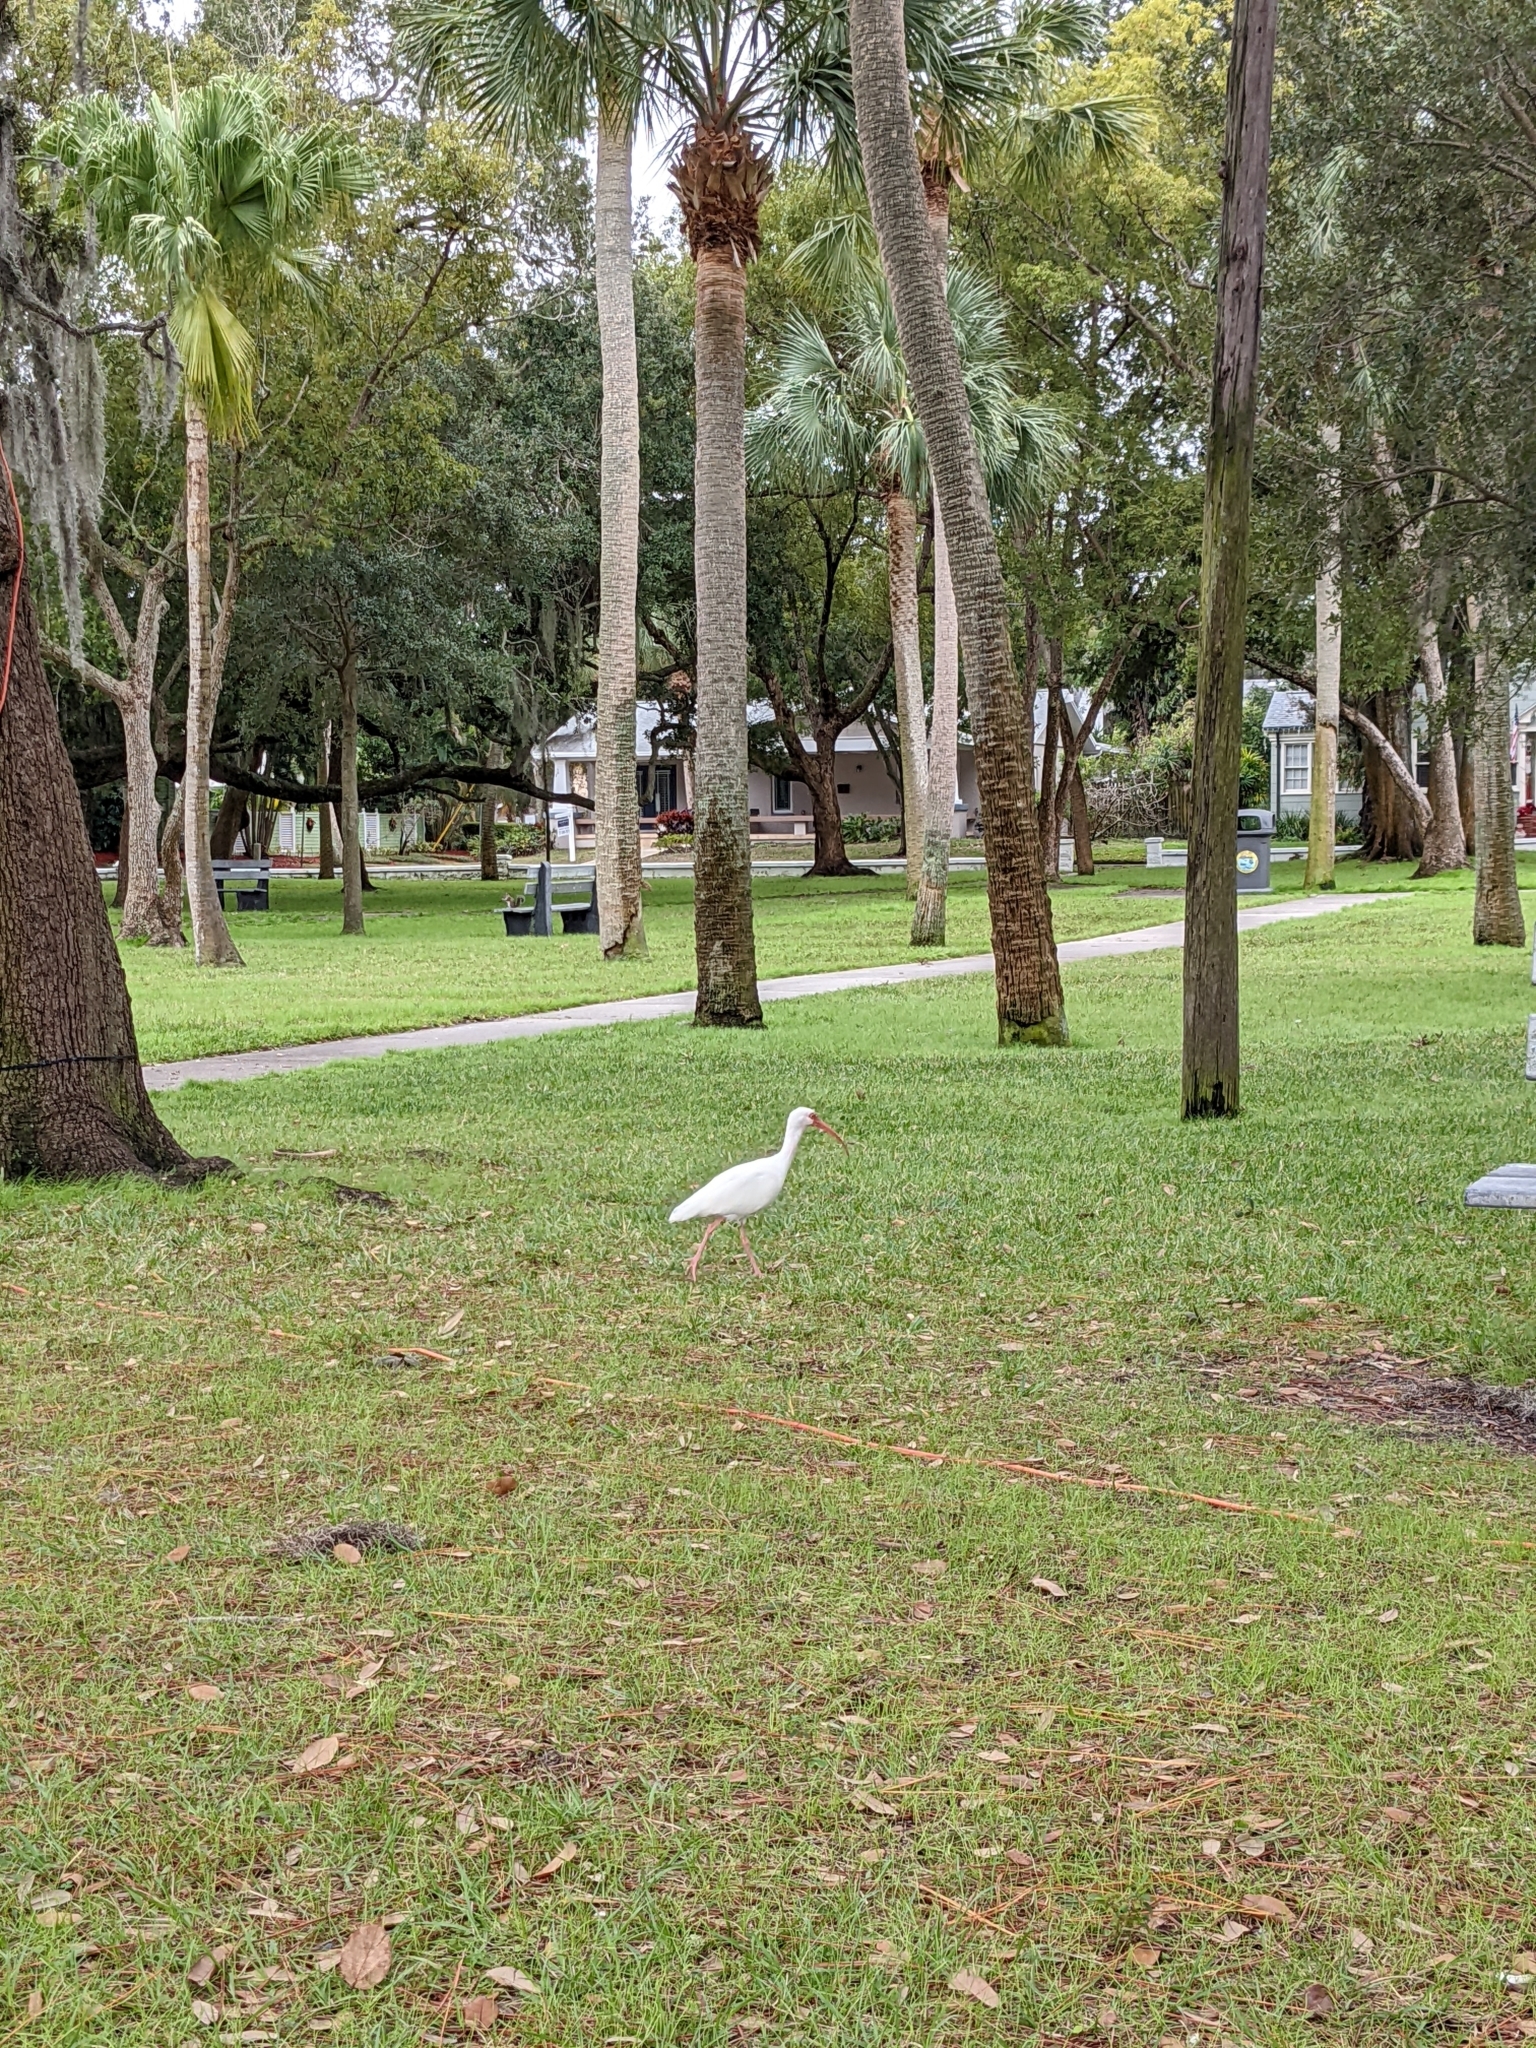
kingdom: Animalia
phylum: Chordata
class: Aves
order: Pelecaniformes
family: Threskiornithidae
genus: Eudocimus
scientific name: Eudocimus albus
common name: White ibis
